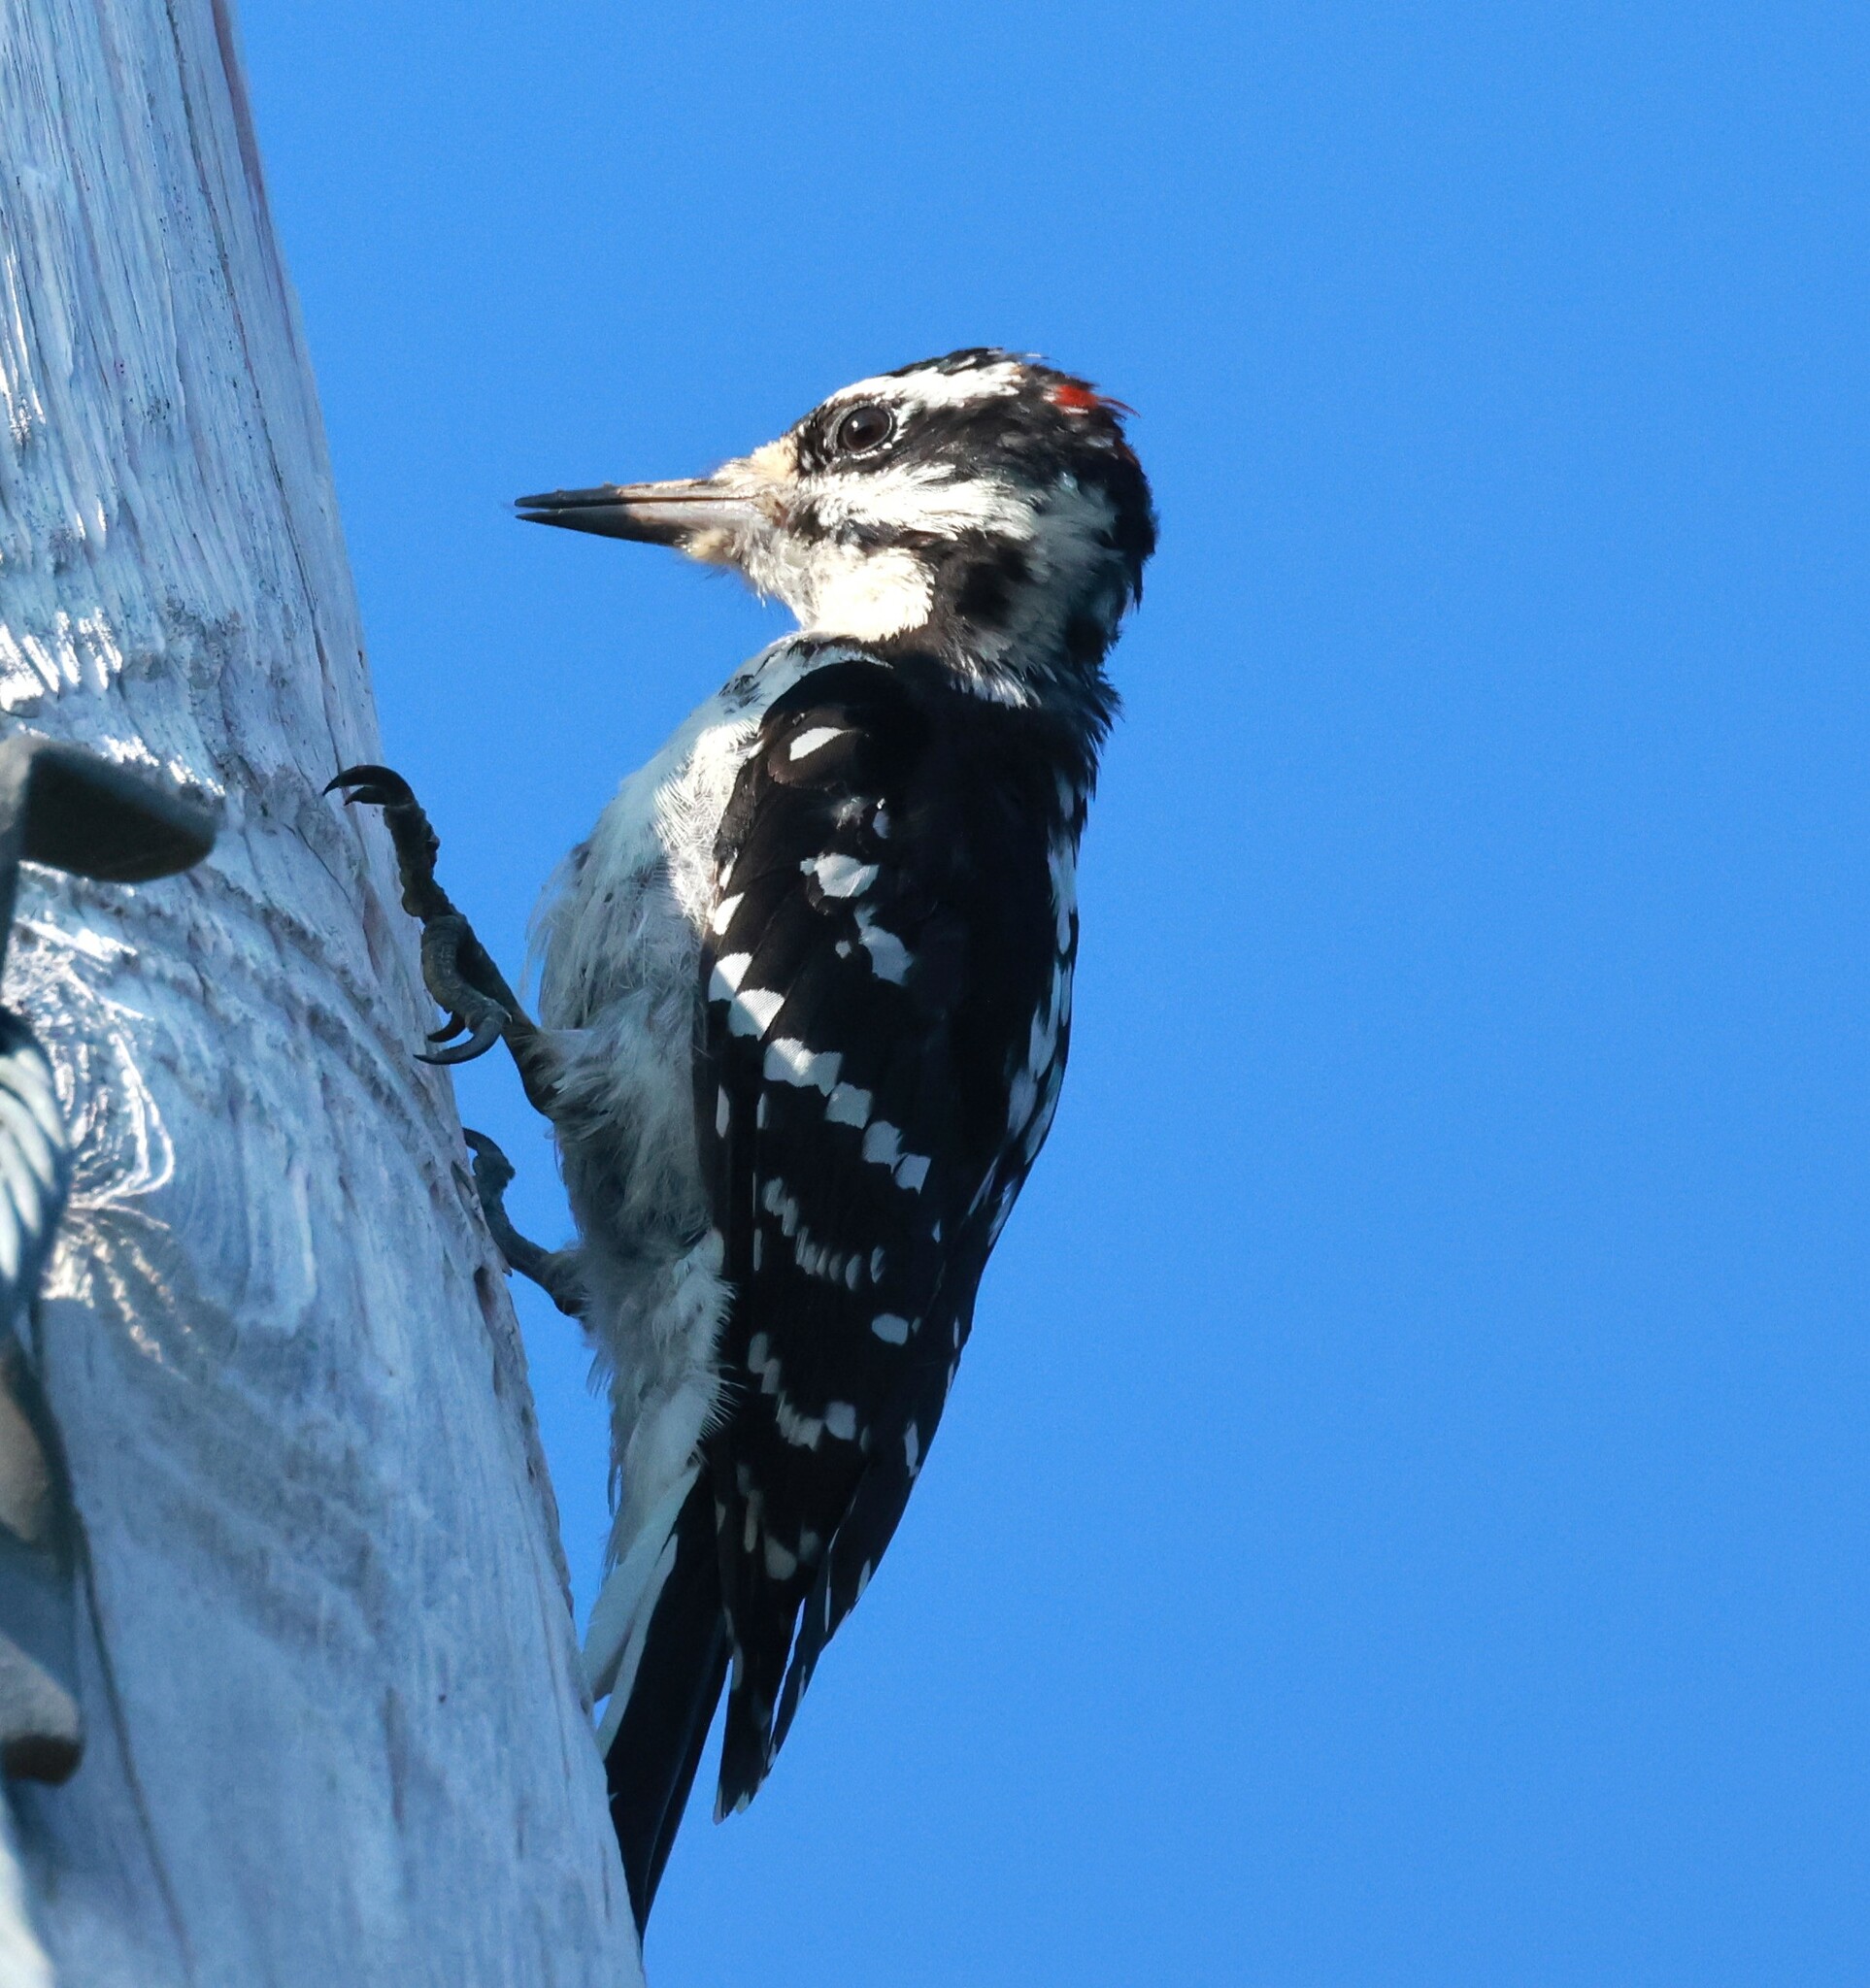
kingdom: Animalia
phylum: Chordata
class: Aves
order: Piciformes
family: Picidae
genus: Leuconotopicus
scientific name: Leuconotopicus villosus
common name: Hairy woodpecker
